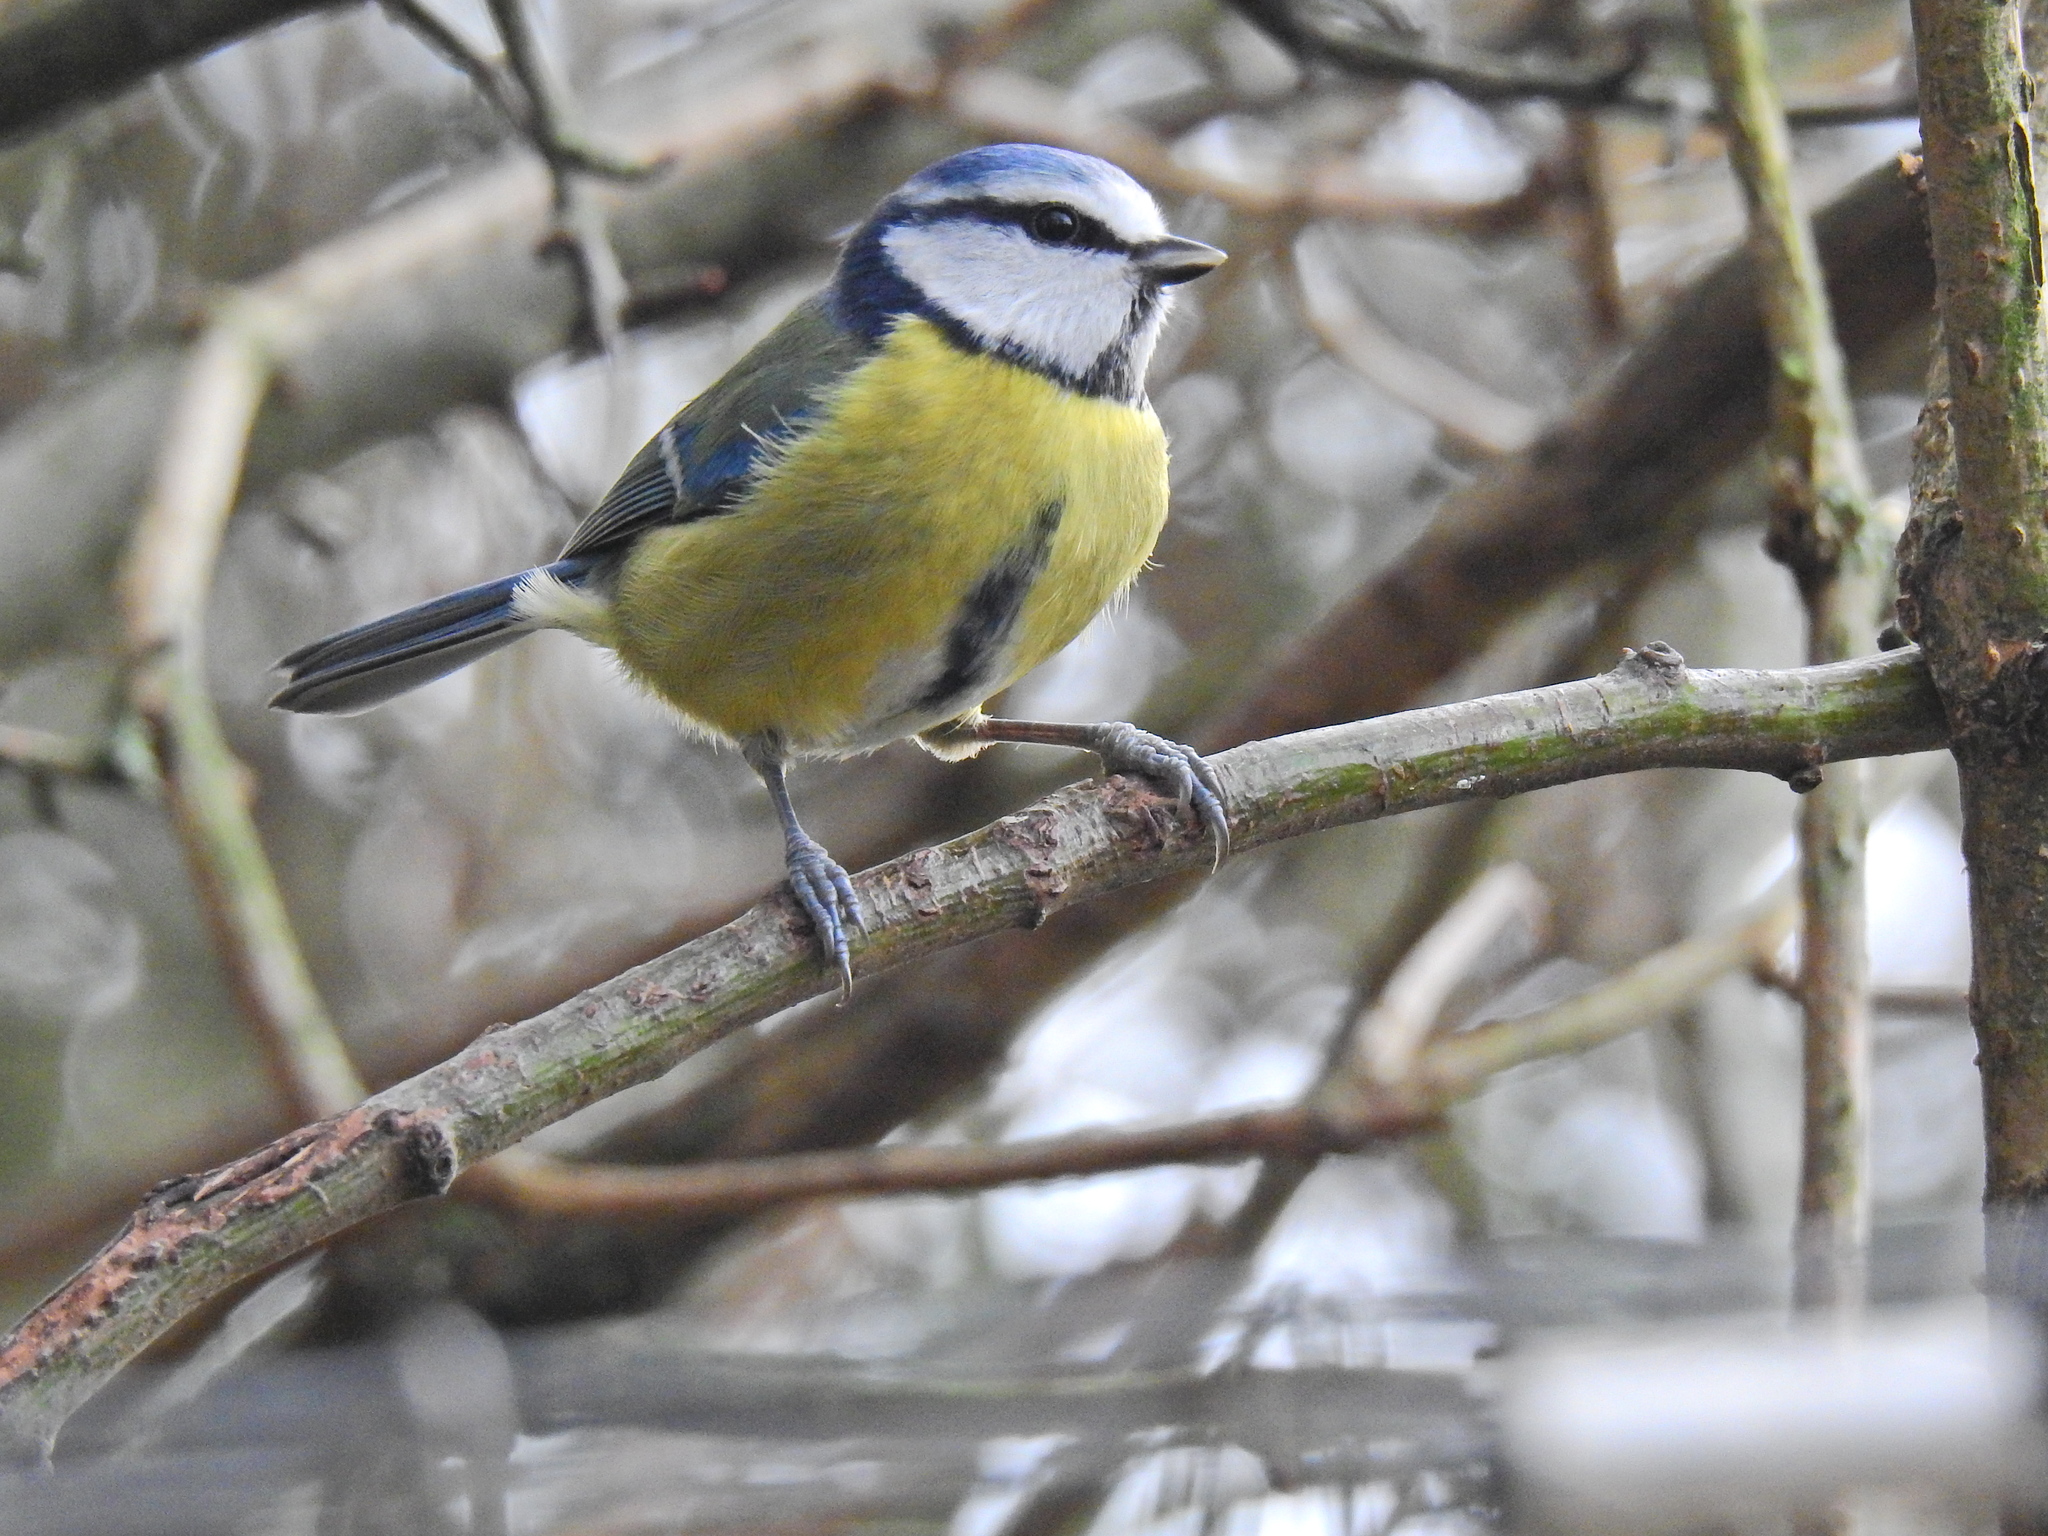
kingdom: Animalia
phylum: Chordata
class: Aves
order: Passeriformes
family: Paridae
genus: Cyanistes
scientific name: Cyanistes caeruleus
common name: Eurasian blue tit
